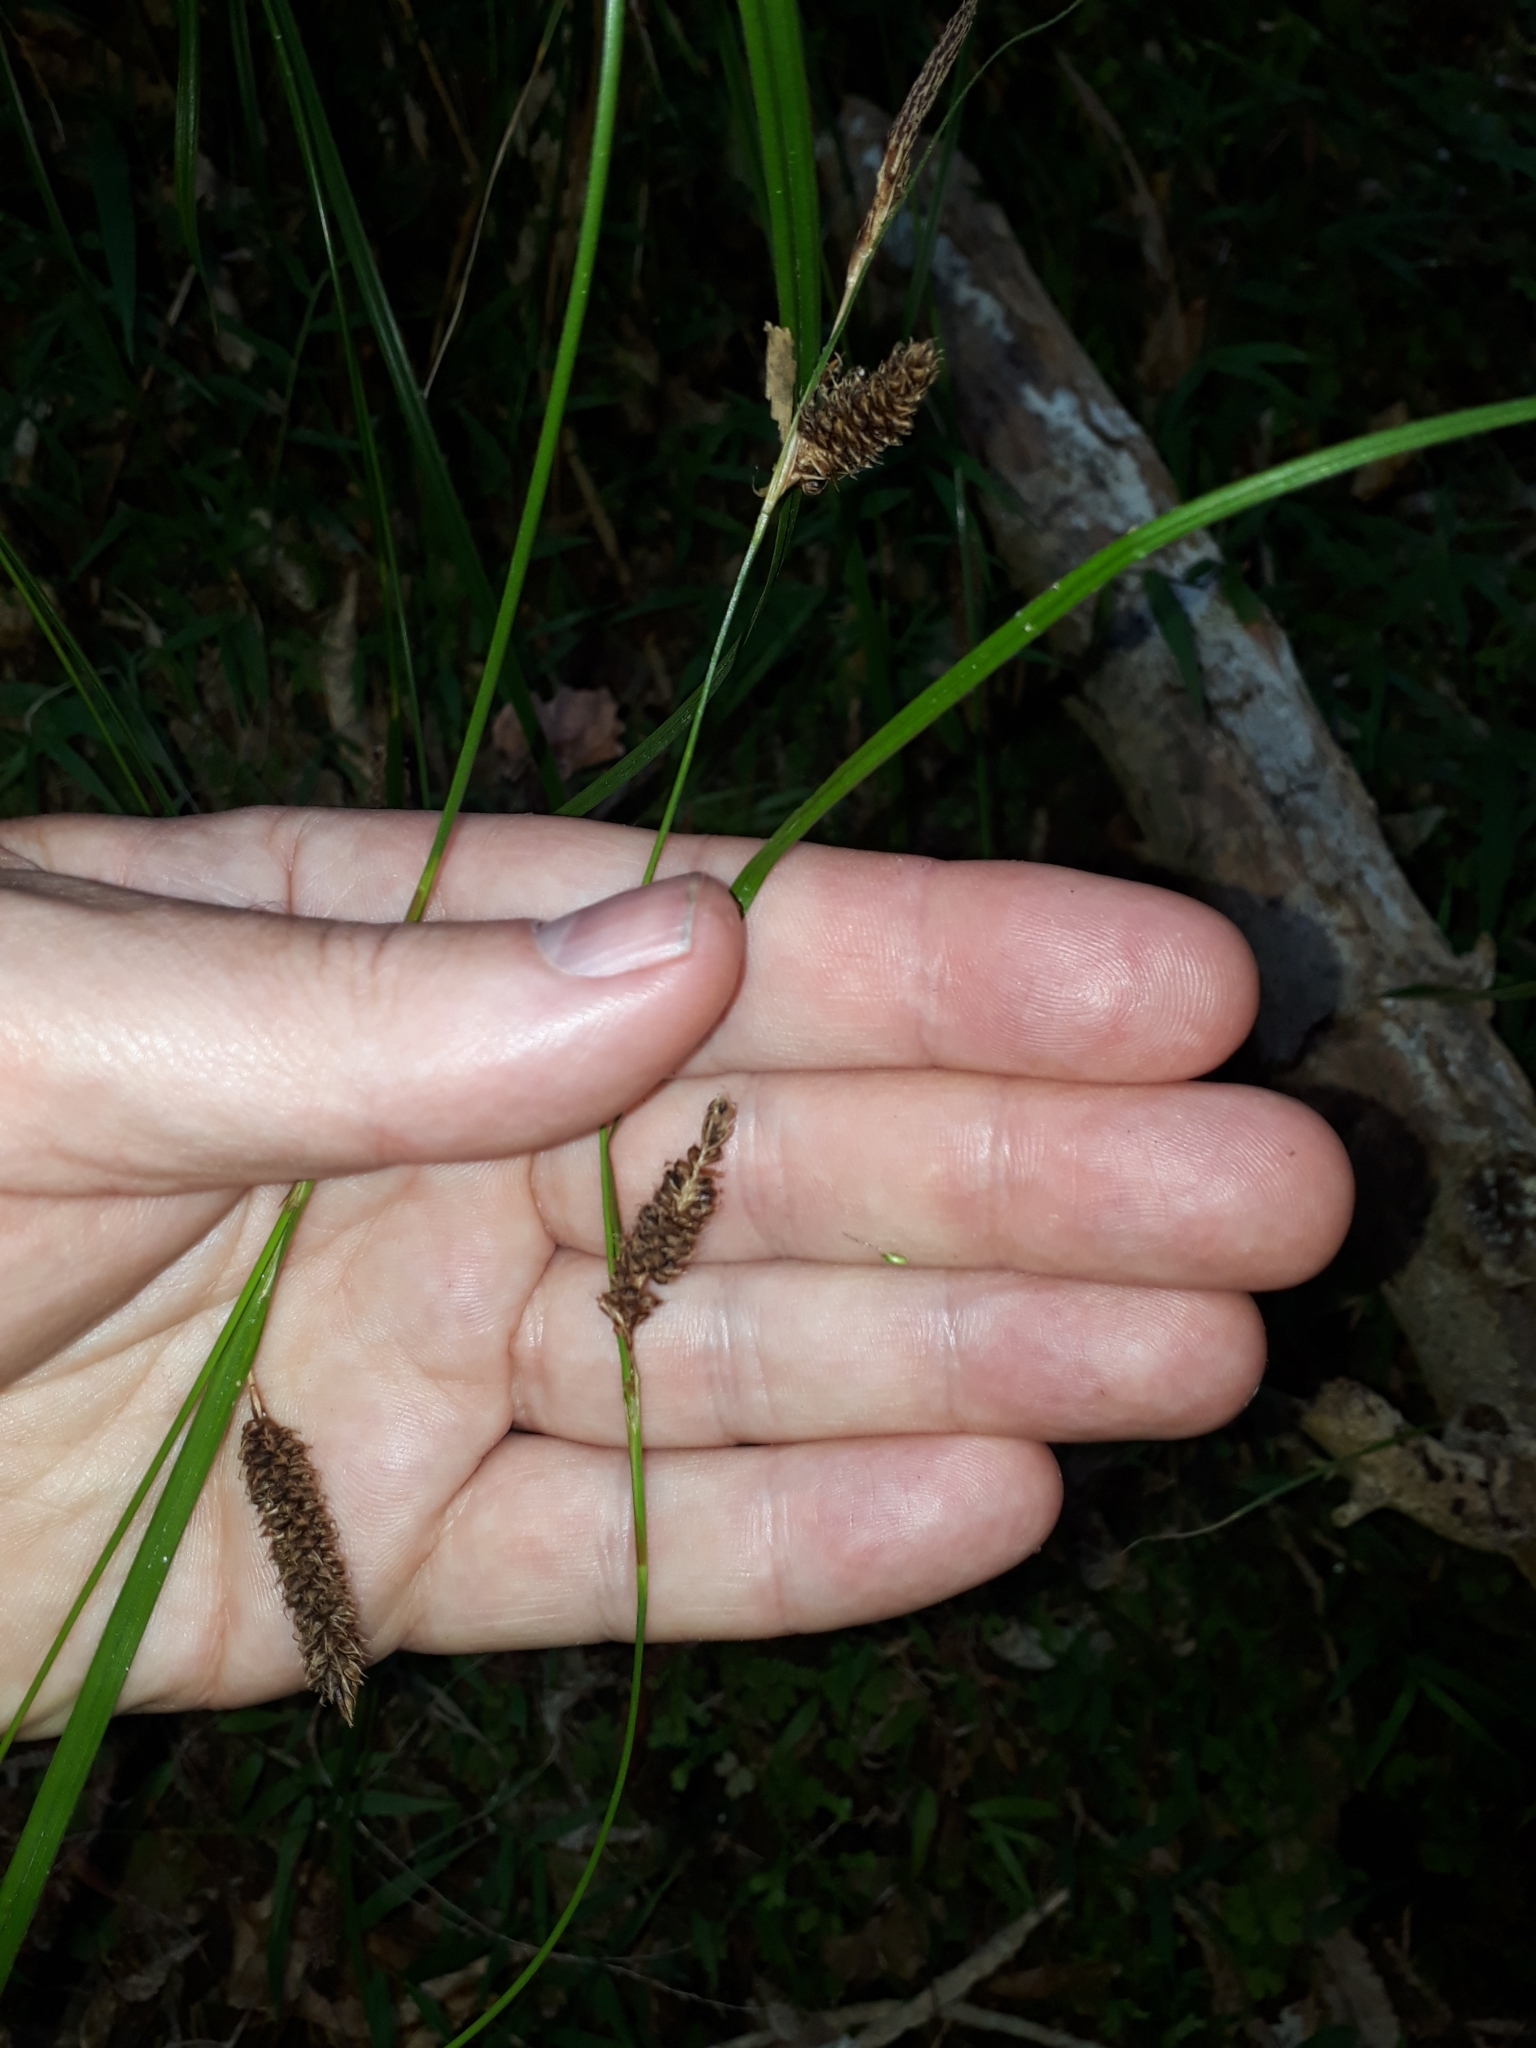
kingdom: Plantae
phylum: Tracheophyta
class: Liliopsida
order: Poales
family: Cyperaceae
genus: Carex
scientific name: Carex solandri
